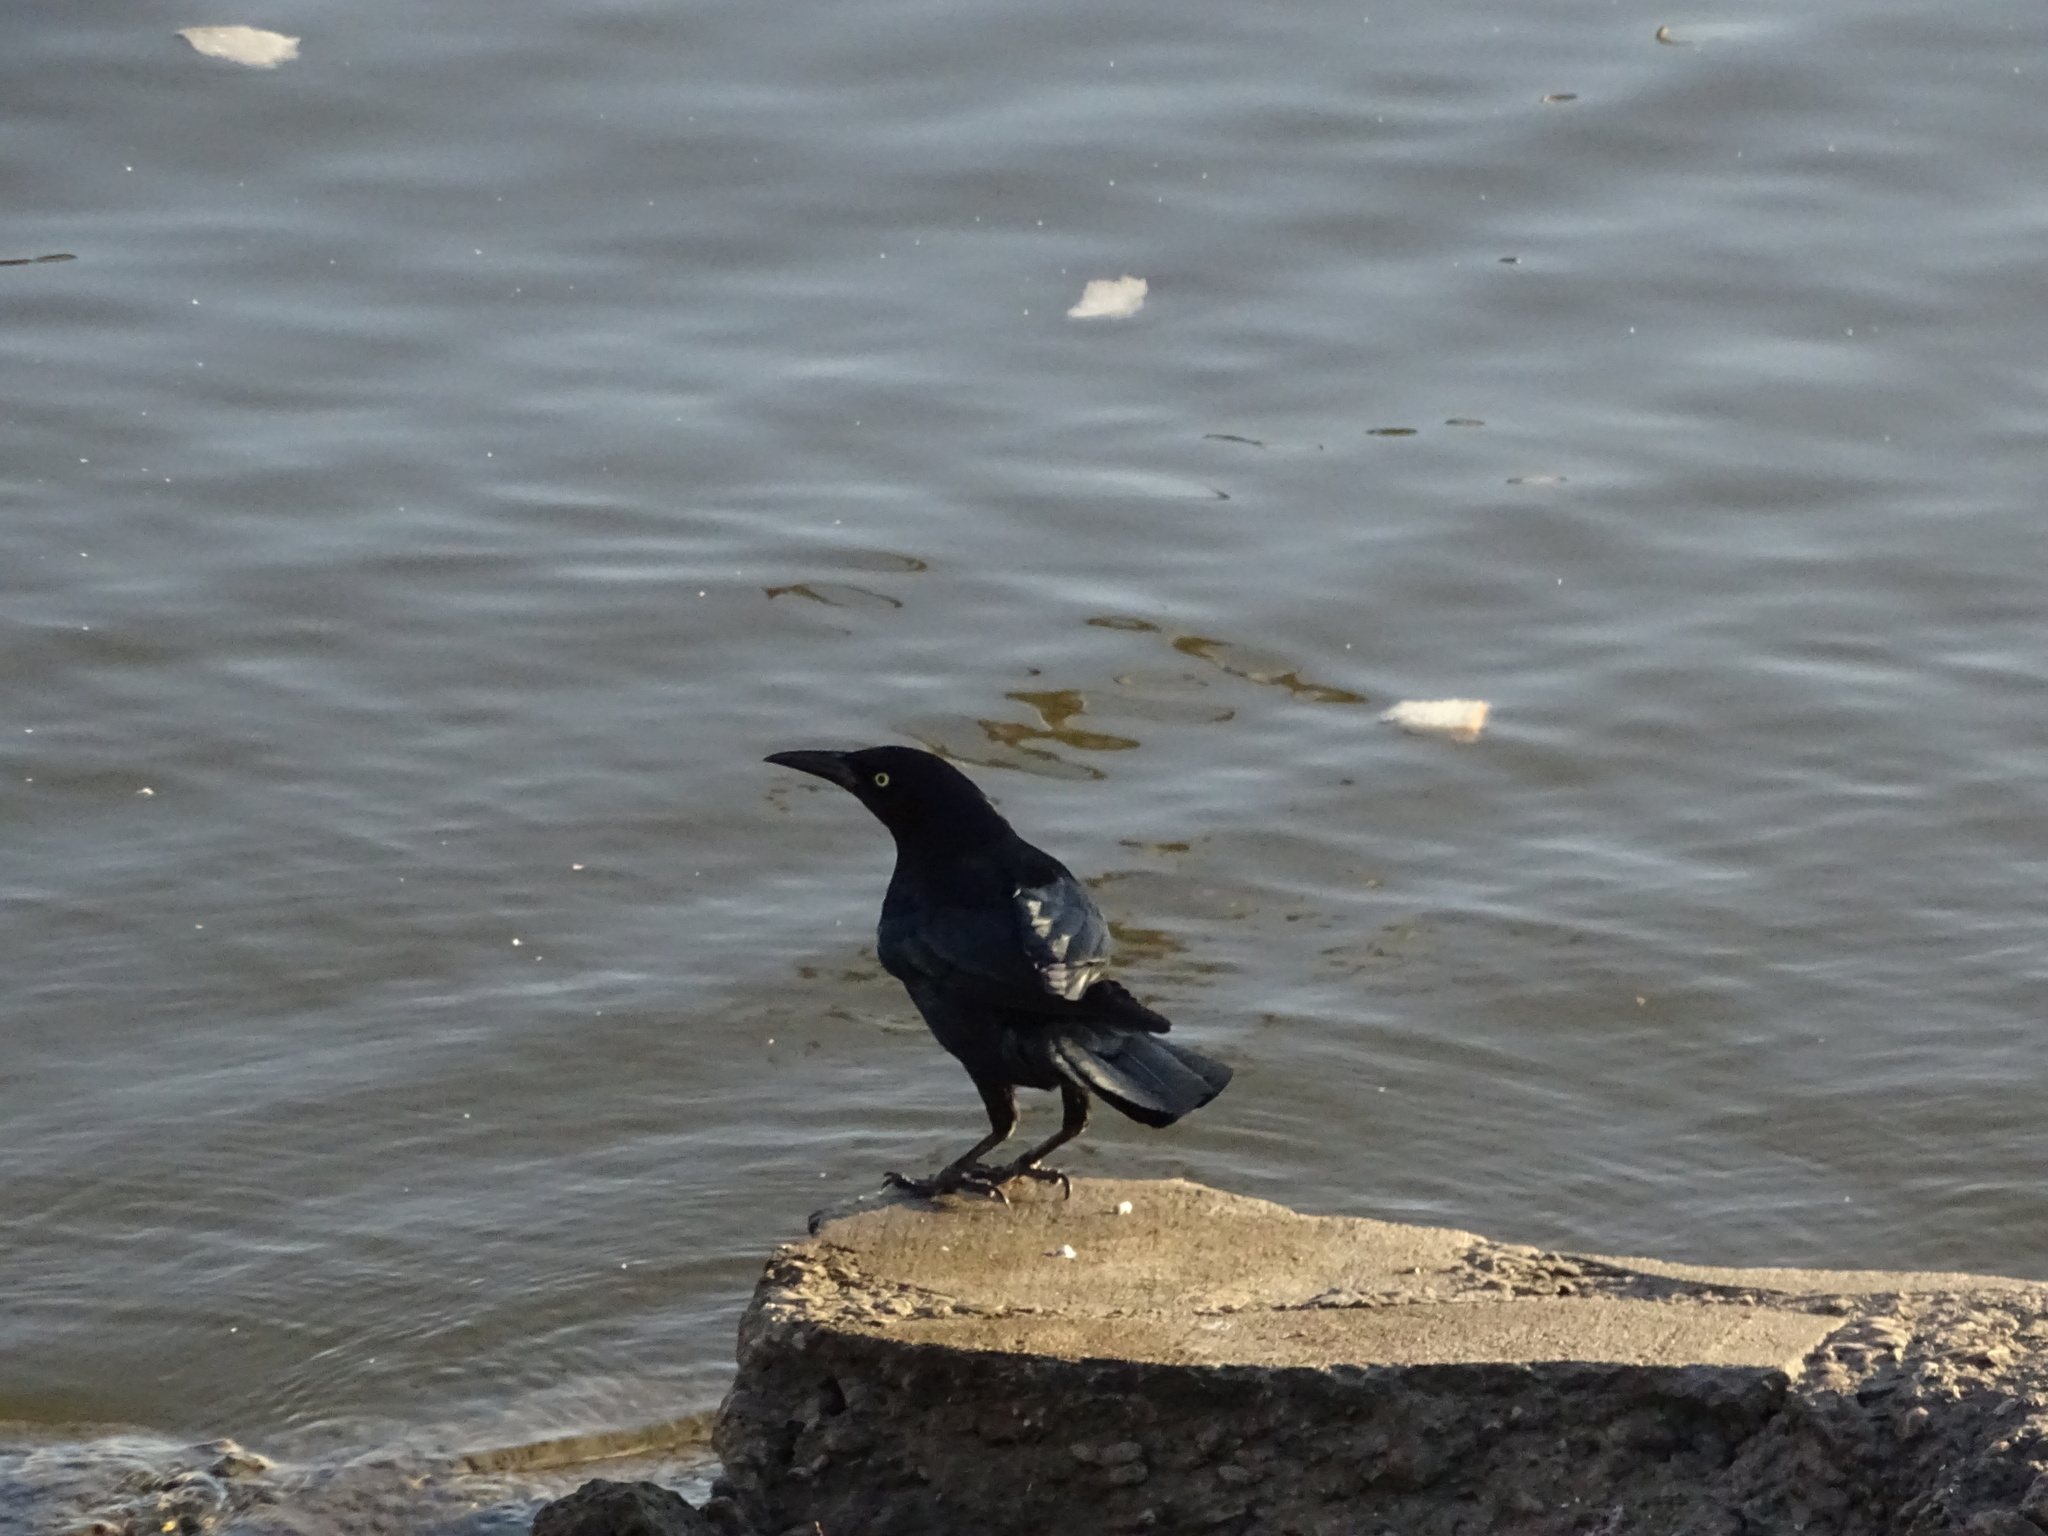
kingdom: Animalia
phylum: Chordata
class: Aves
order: Passeriformes
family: Icteridae
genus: Quiscalus
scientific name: Quiscalus mexicanus
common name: Great-tailed grackle
